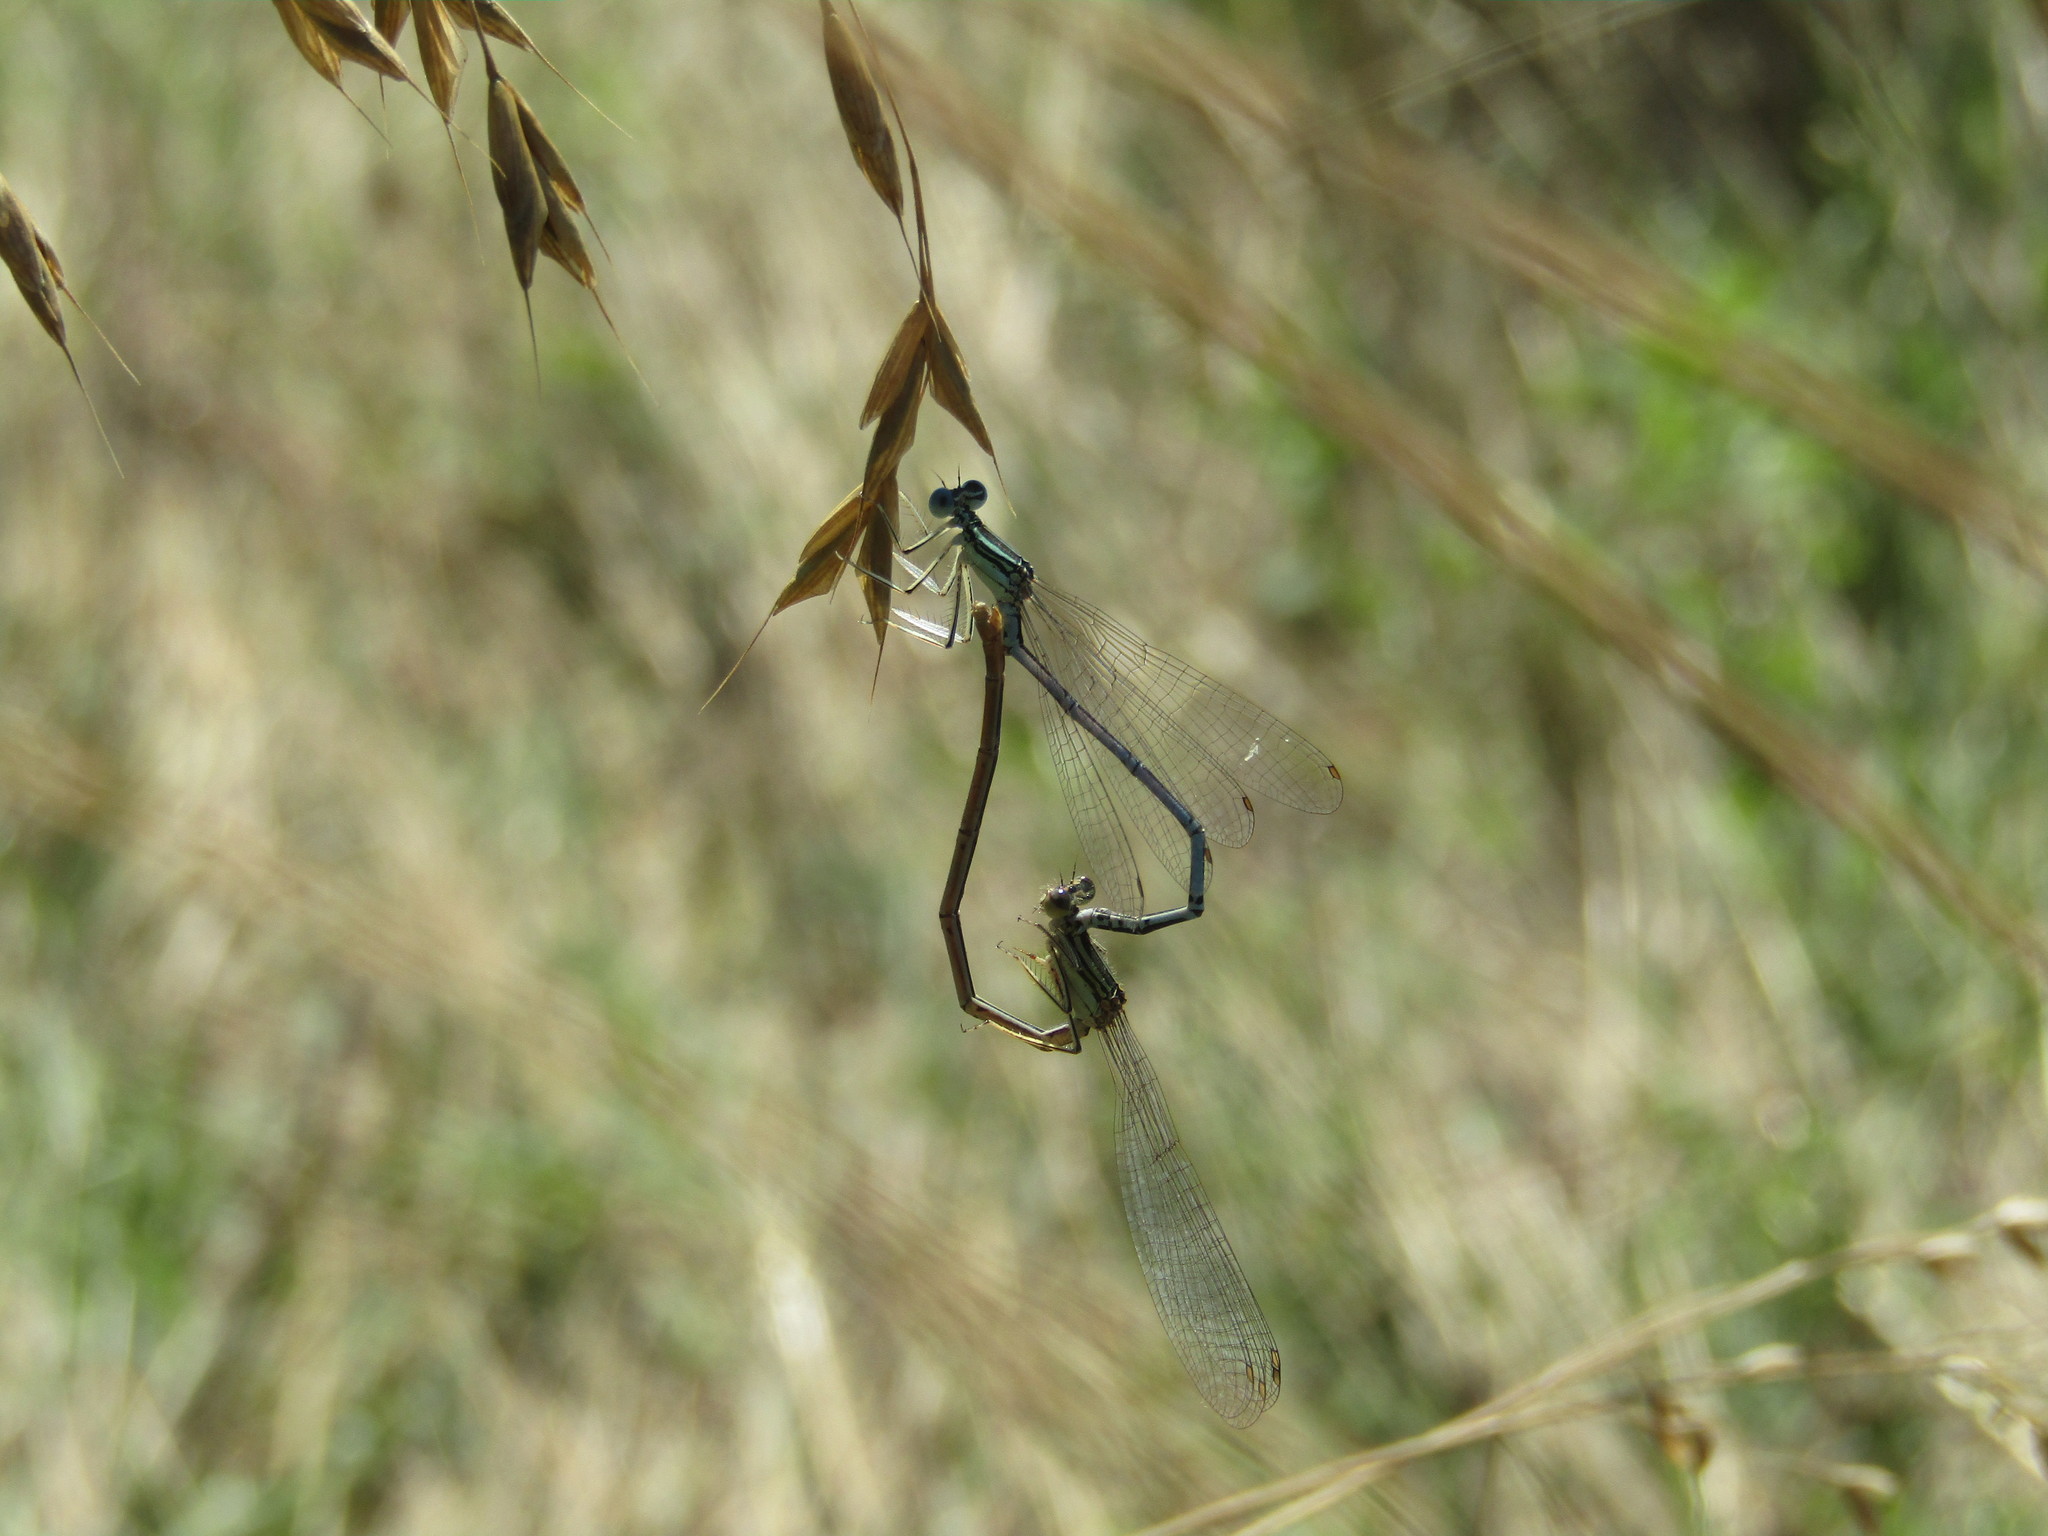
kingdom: Animalia
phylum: Arthropoda
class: Insecta
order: Odonata
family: Platycnemididae
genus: Platycnemis
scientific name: Platycnemis pennipes
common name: White-legged damselfly
